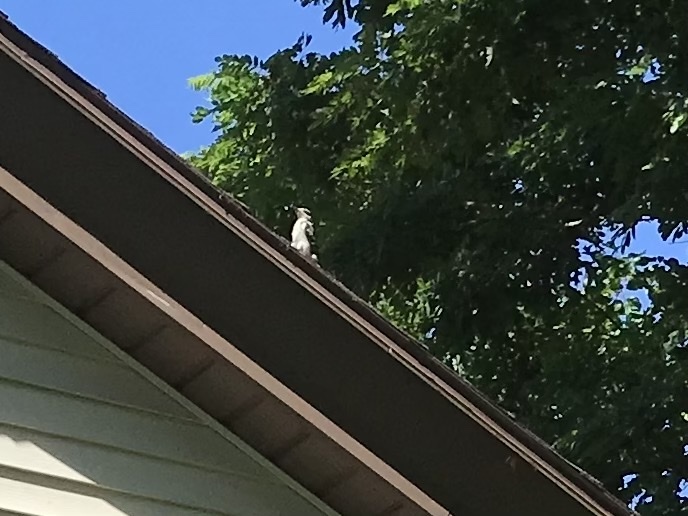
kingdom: Animalia
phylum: Chordata
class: Aves
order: Piciformes
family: Picidae
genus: Leuconotopicus
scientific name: Leuconotopicus villosus
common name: Hairy woodpecker
